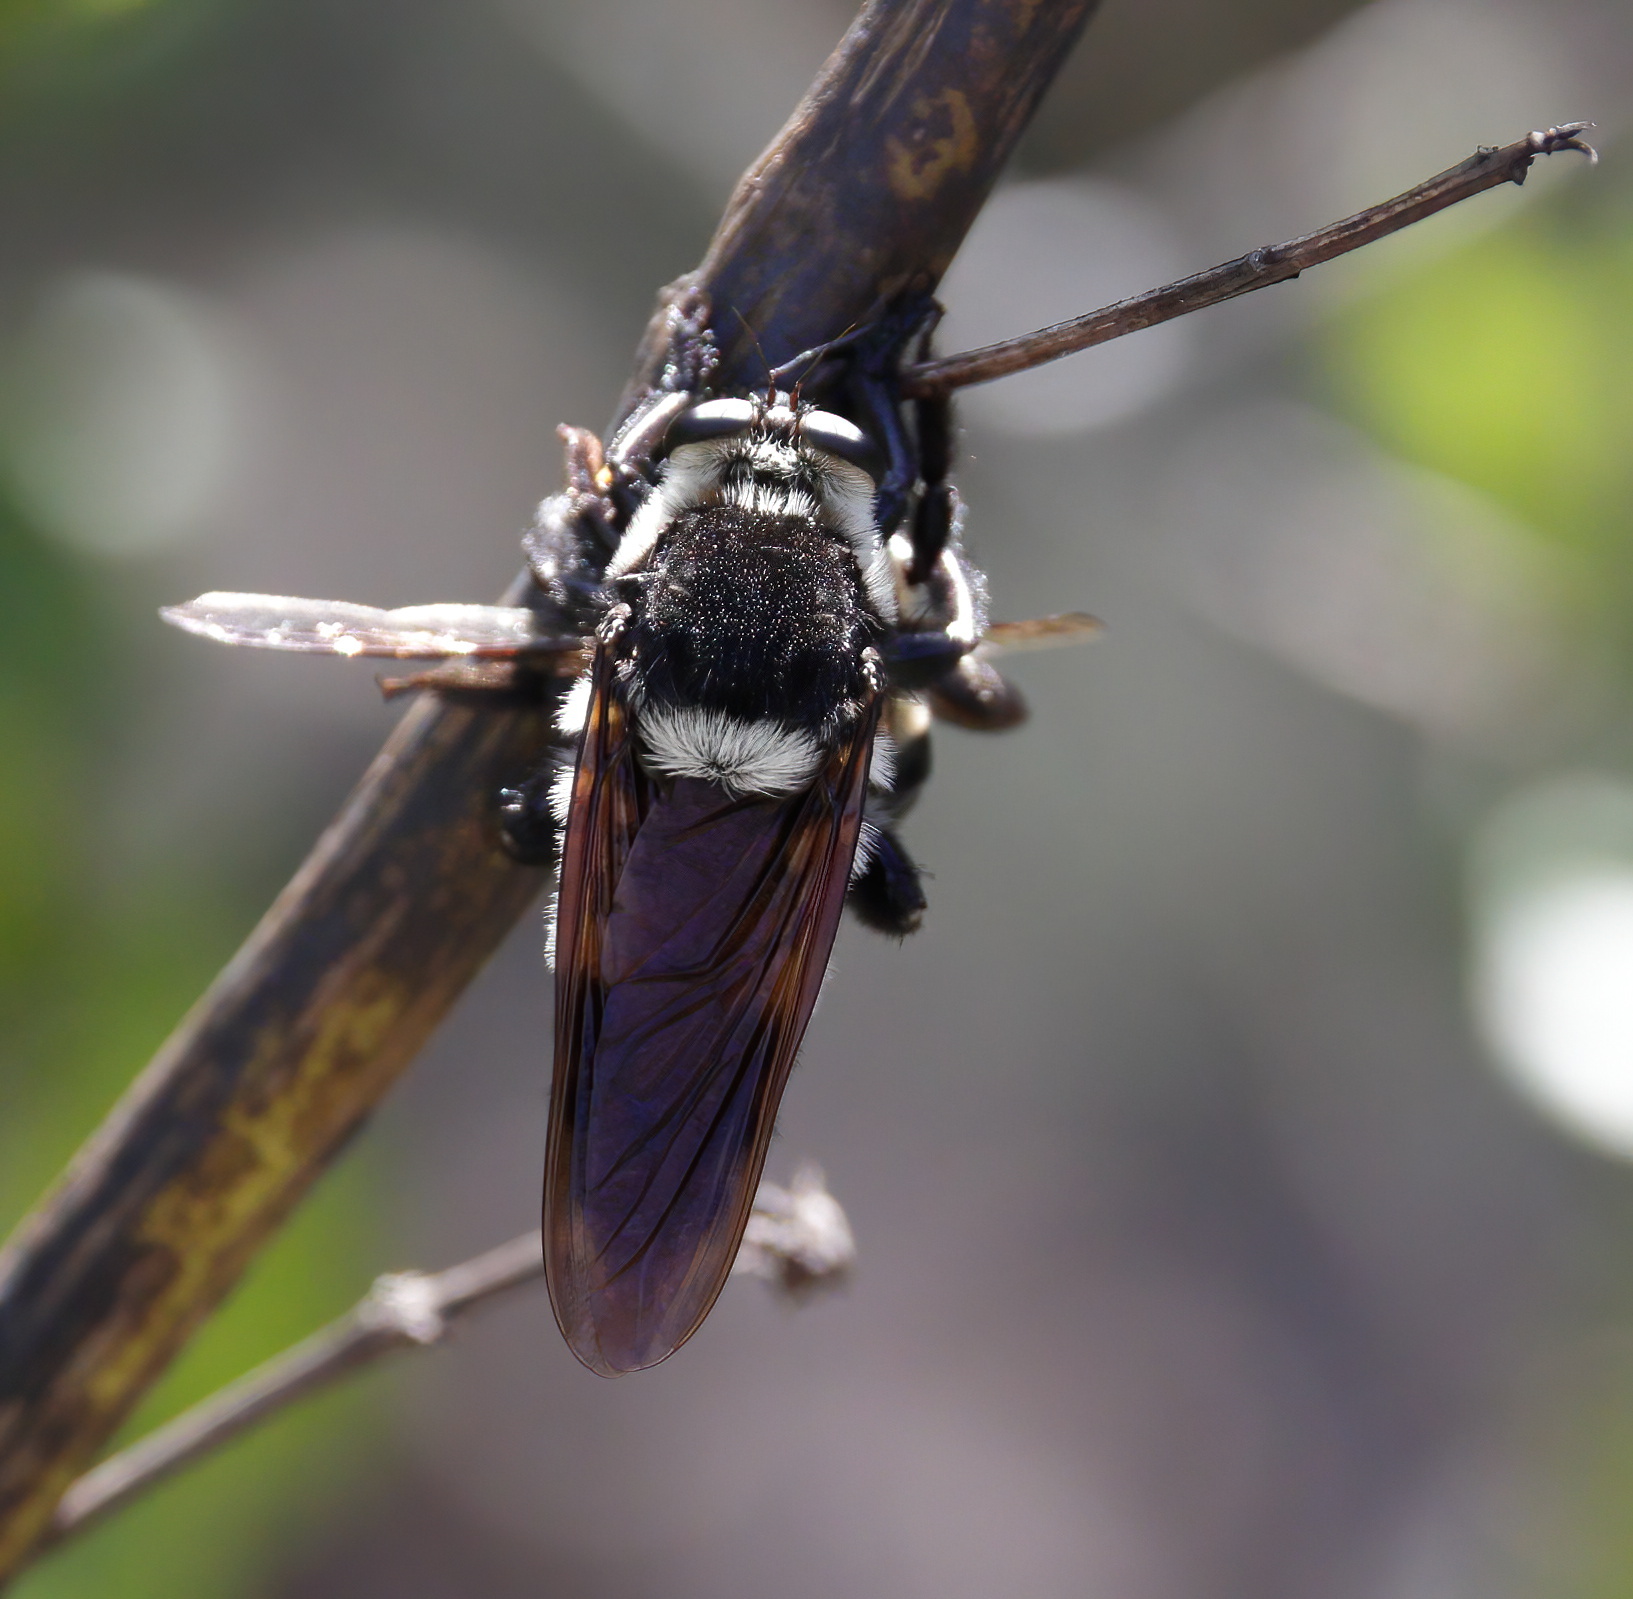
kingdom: Animalia
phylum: Arthropoda
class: Insecta
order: Diptera
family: Asilidae
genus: Mallophora
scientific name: Mallophora bomboides
